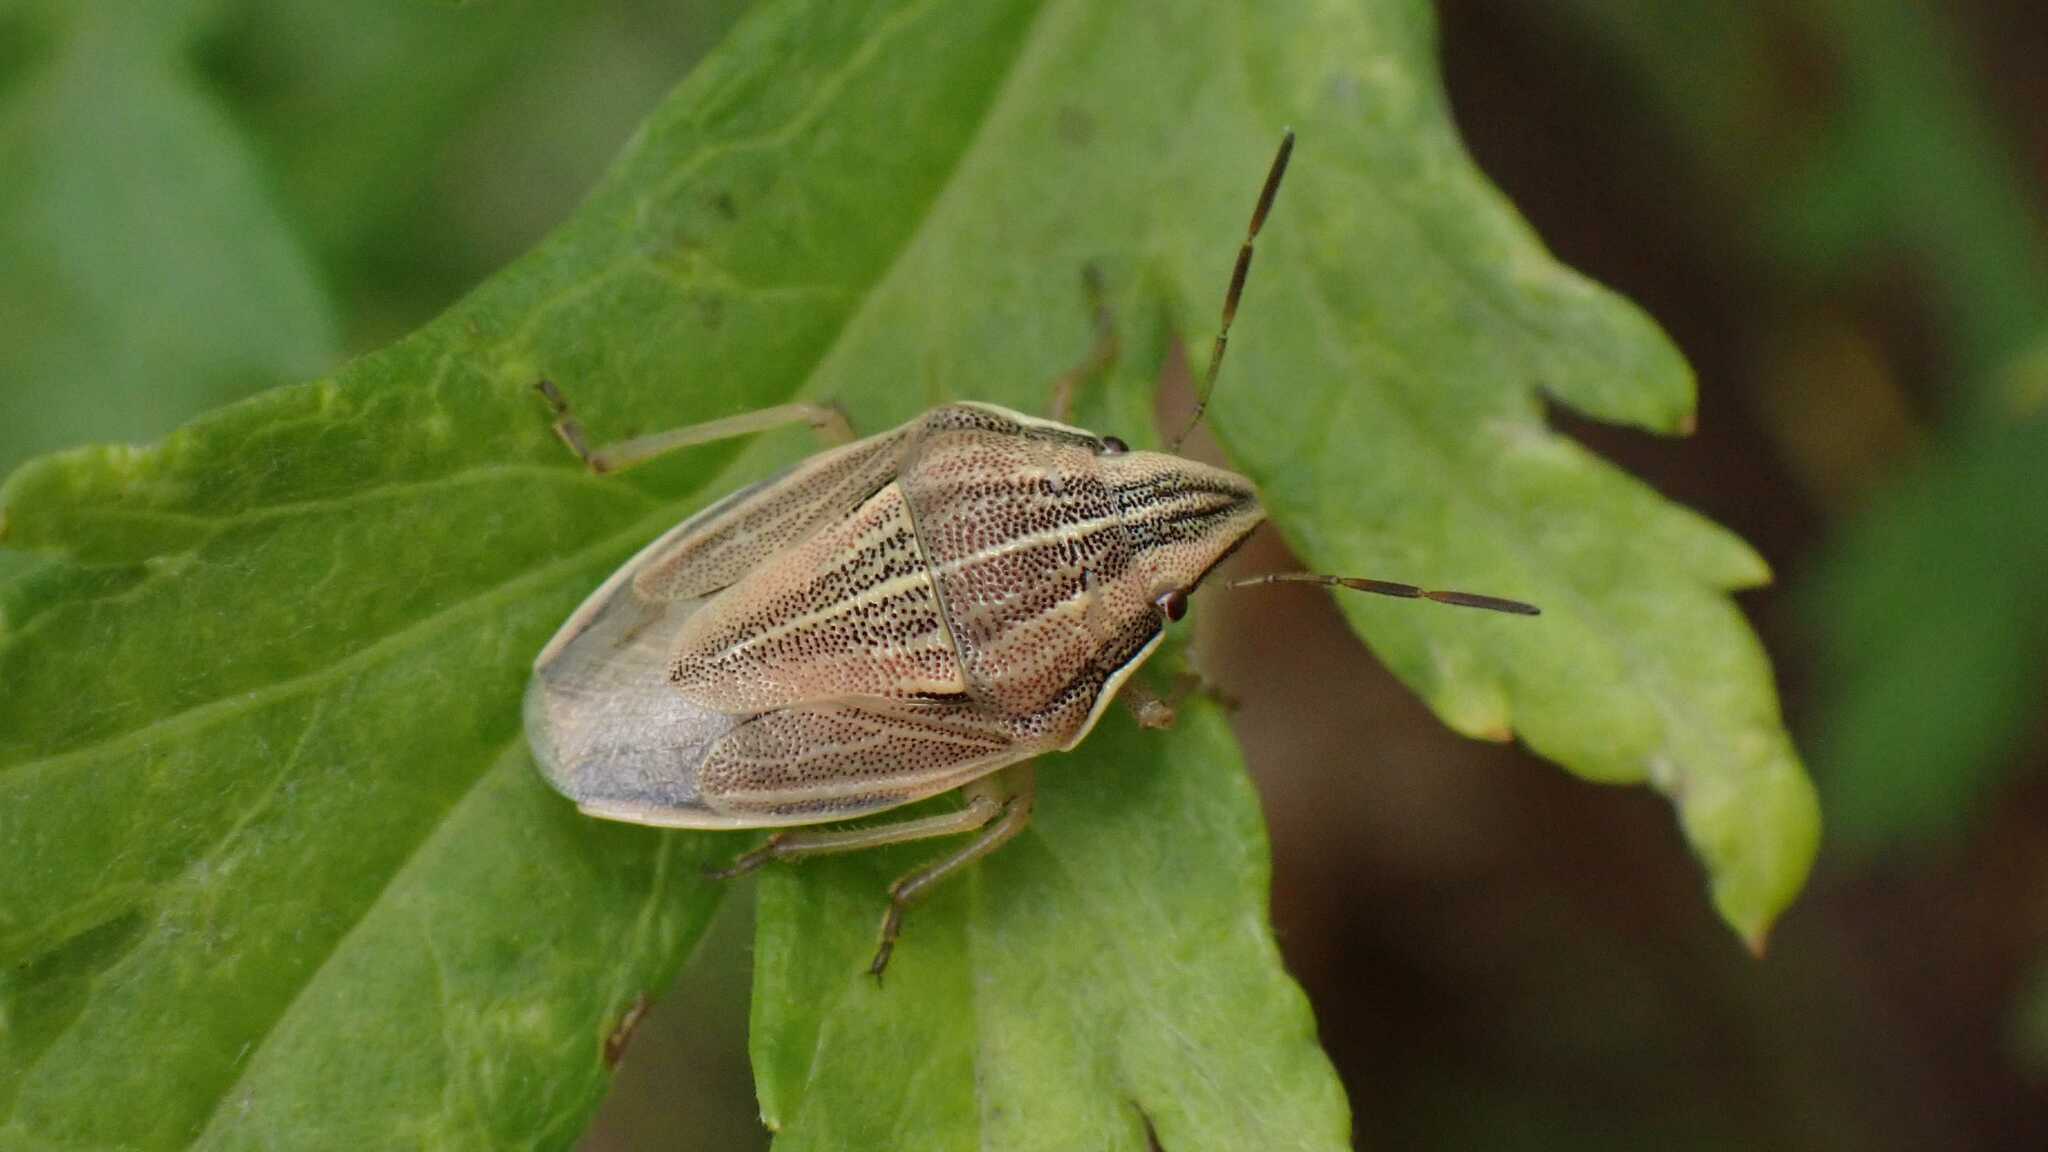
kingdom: Animalia
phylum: Arthropoda
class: Insecta
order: Hemiptera
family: Pentatomidae
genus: Aelia
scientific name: Aelia acuminata
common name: Bishop's mitre
